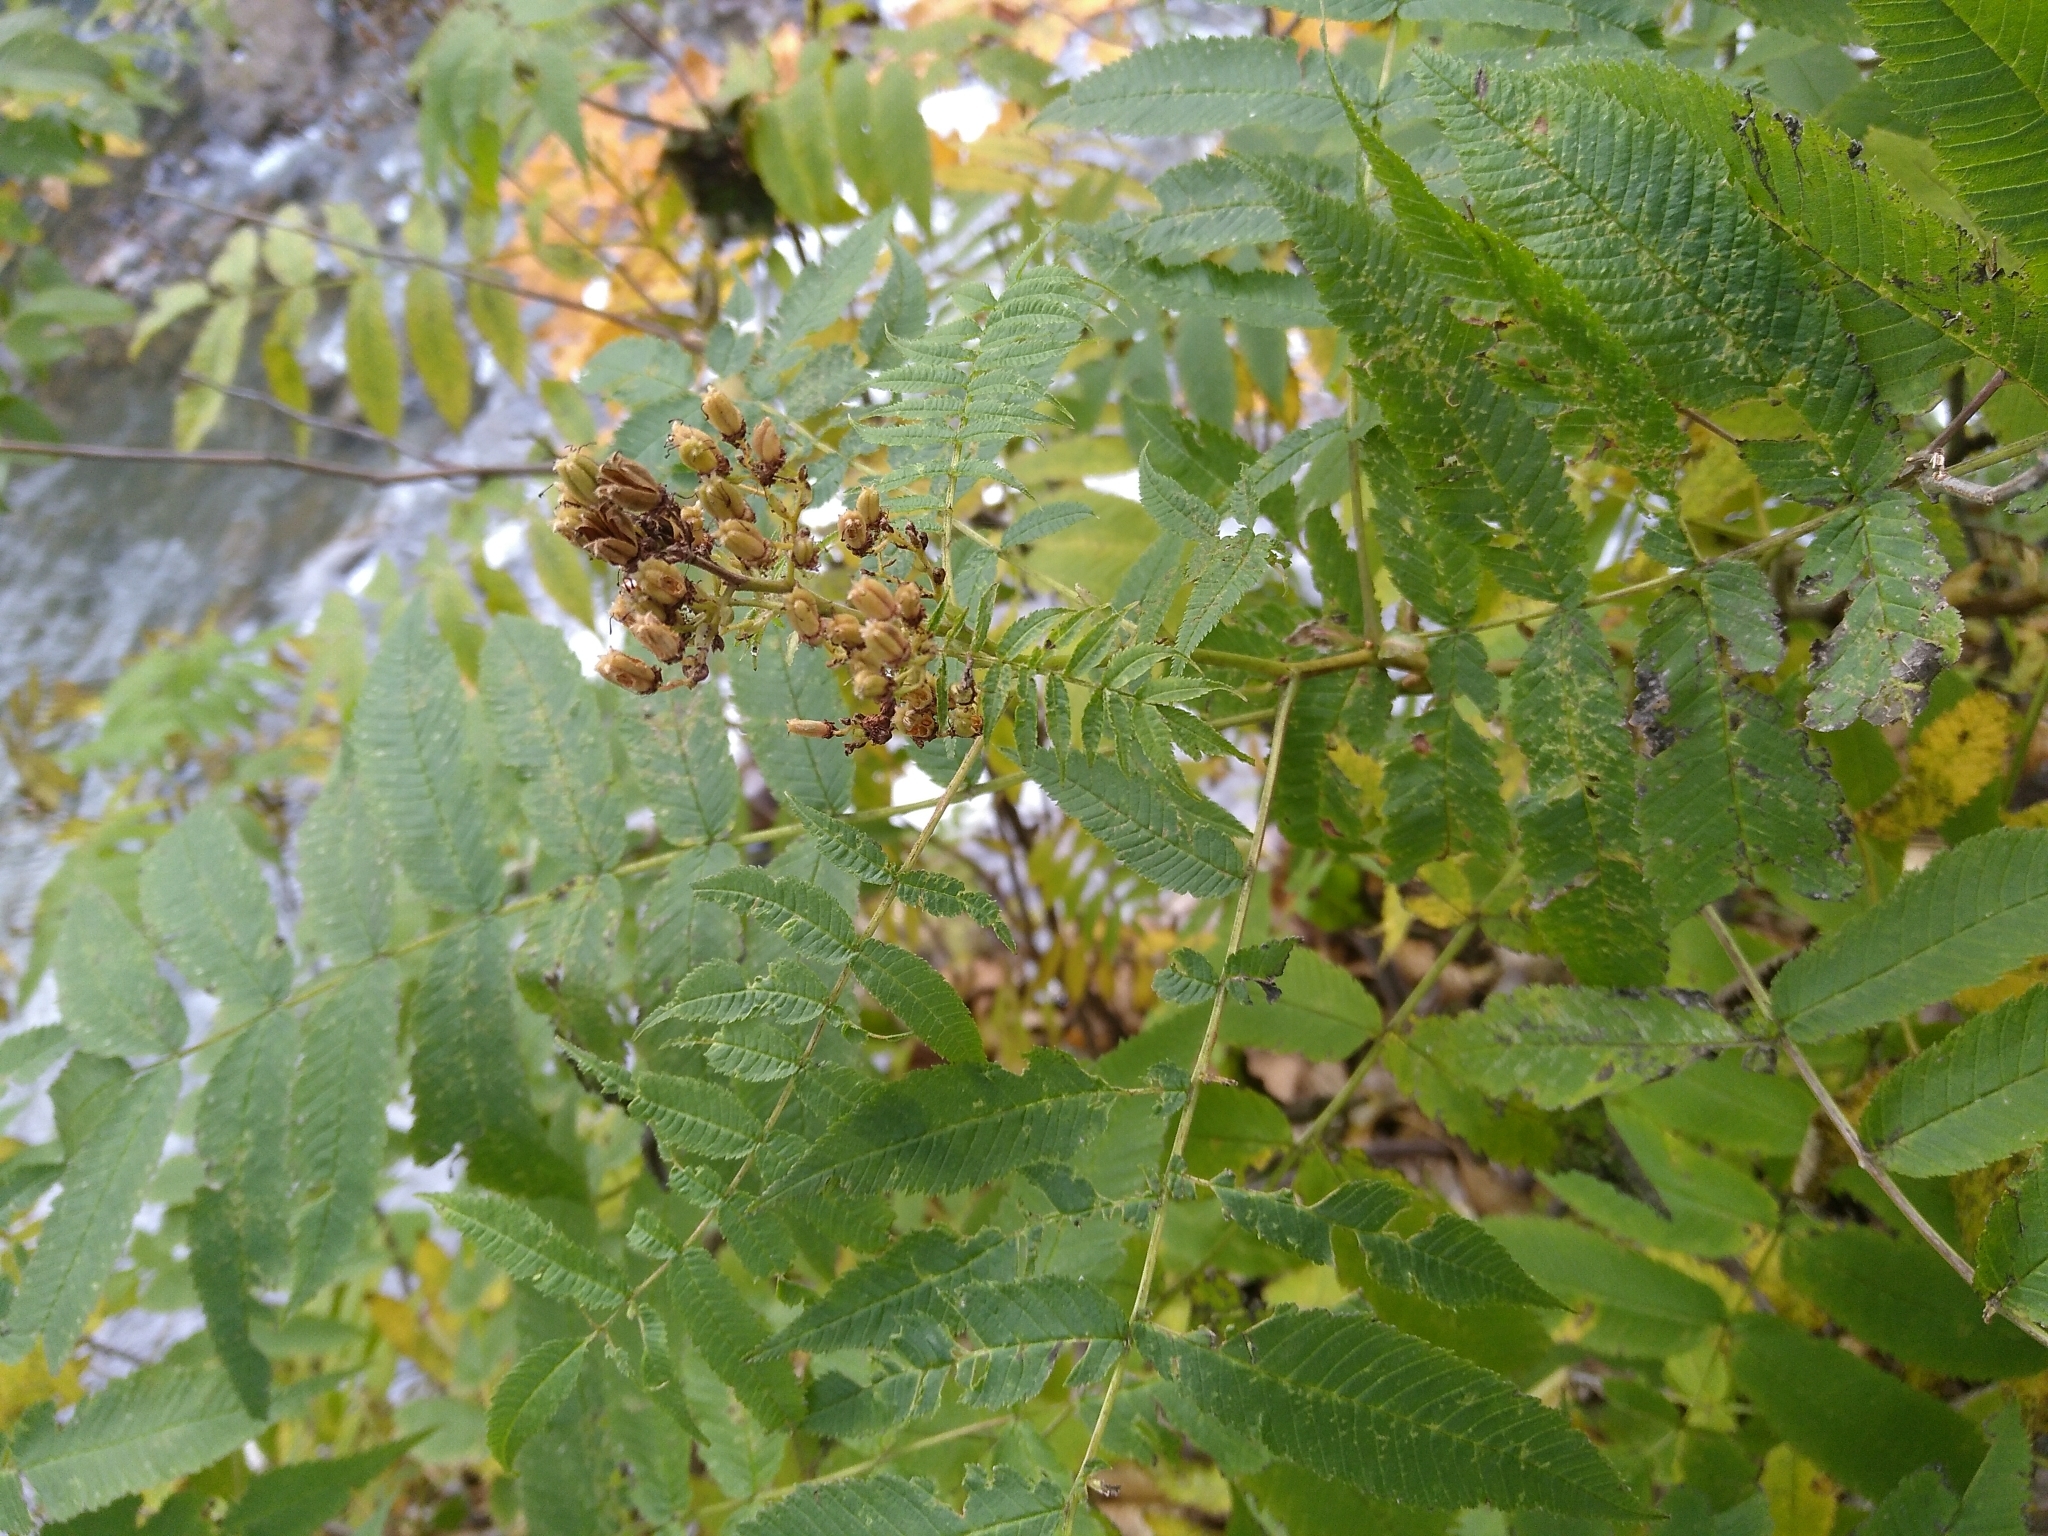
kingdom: Plantae
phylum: Tracheophyta
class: Magnoliopsida
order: Rosales
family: Rosaceae
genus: Sorbaria
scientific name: Sorbaria sorbifolia
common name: False spiraea
